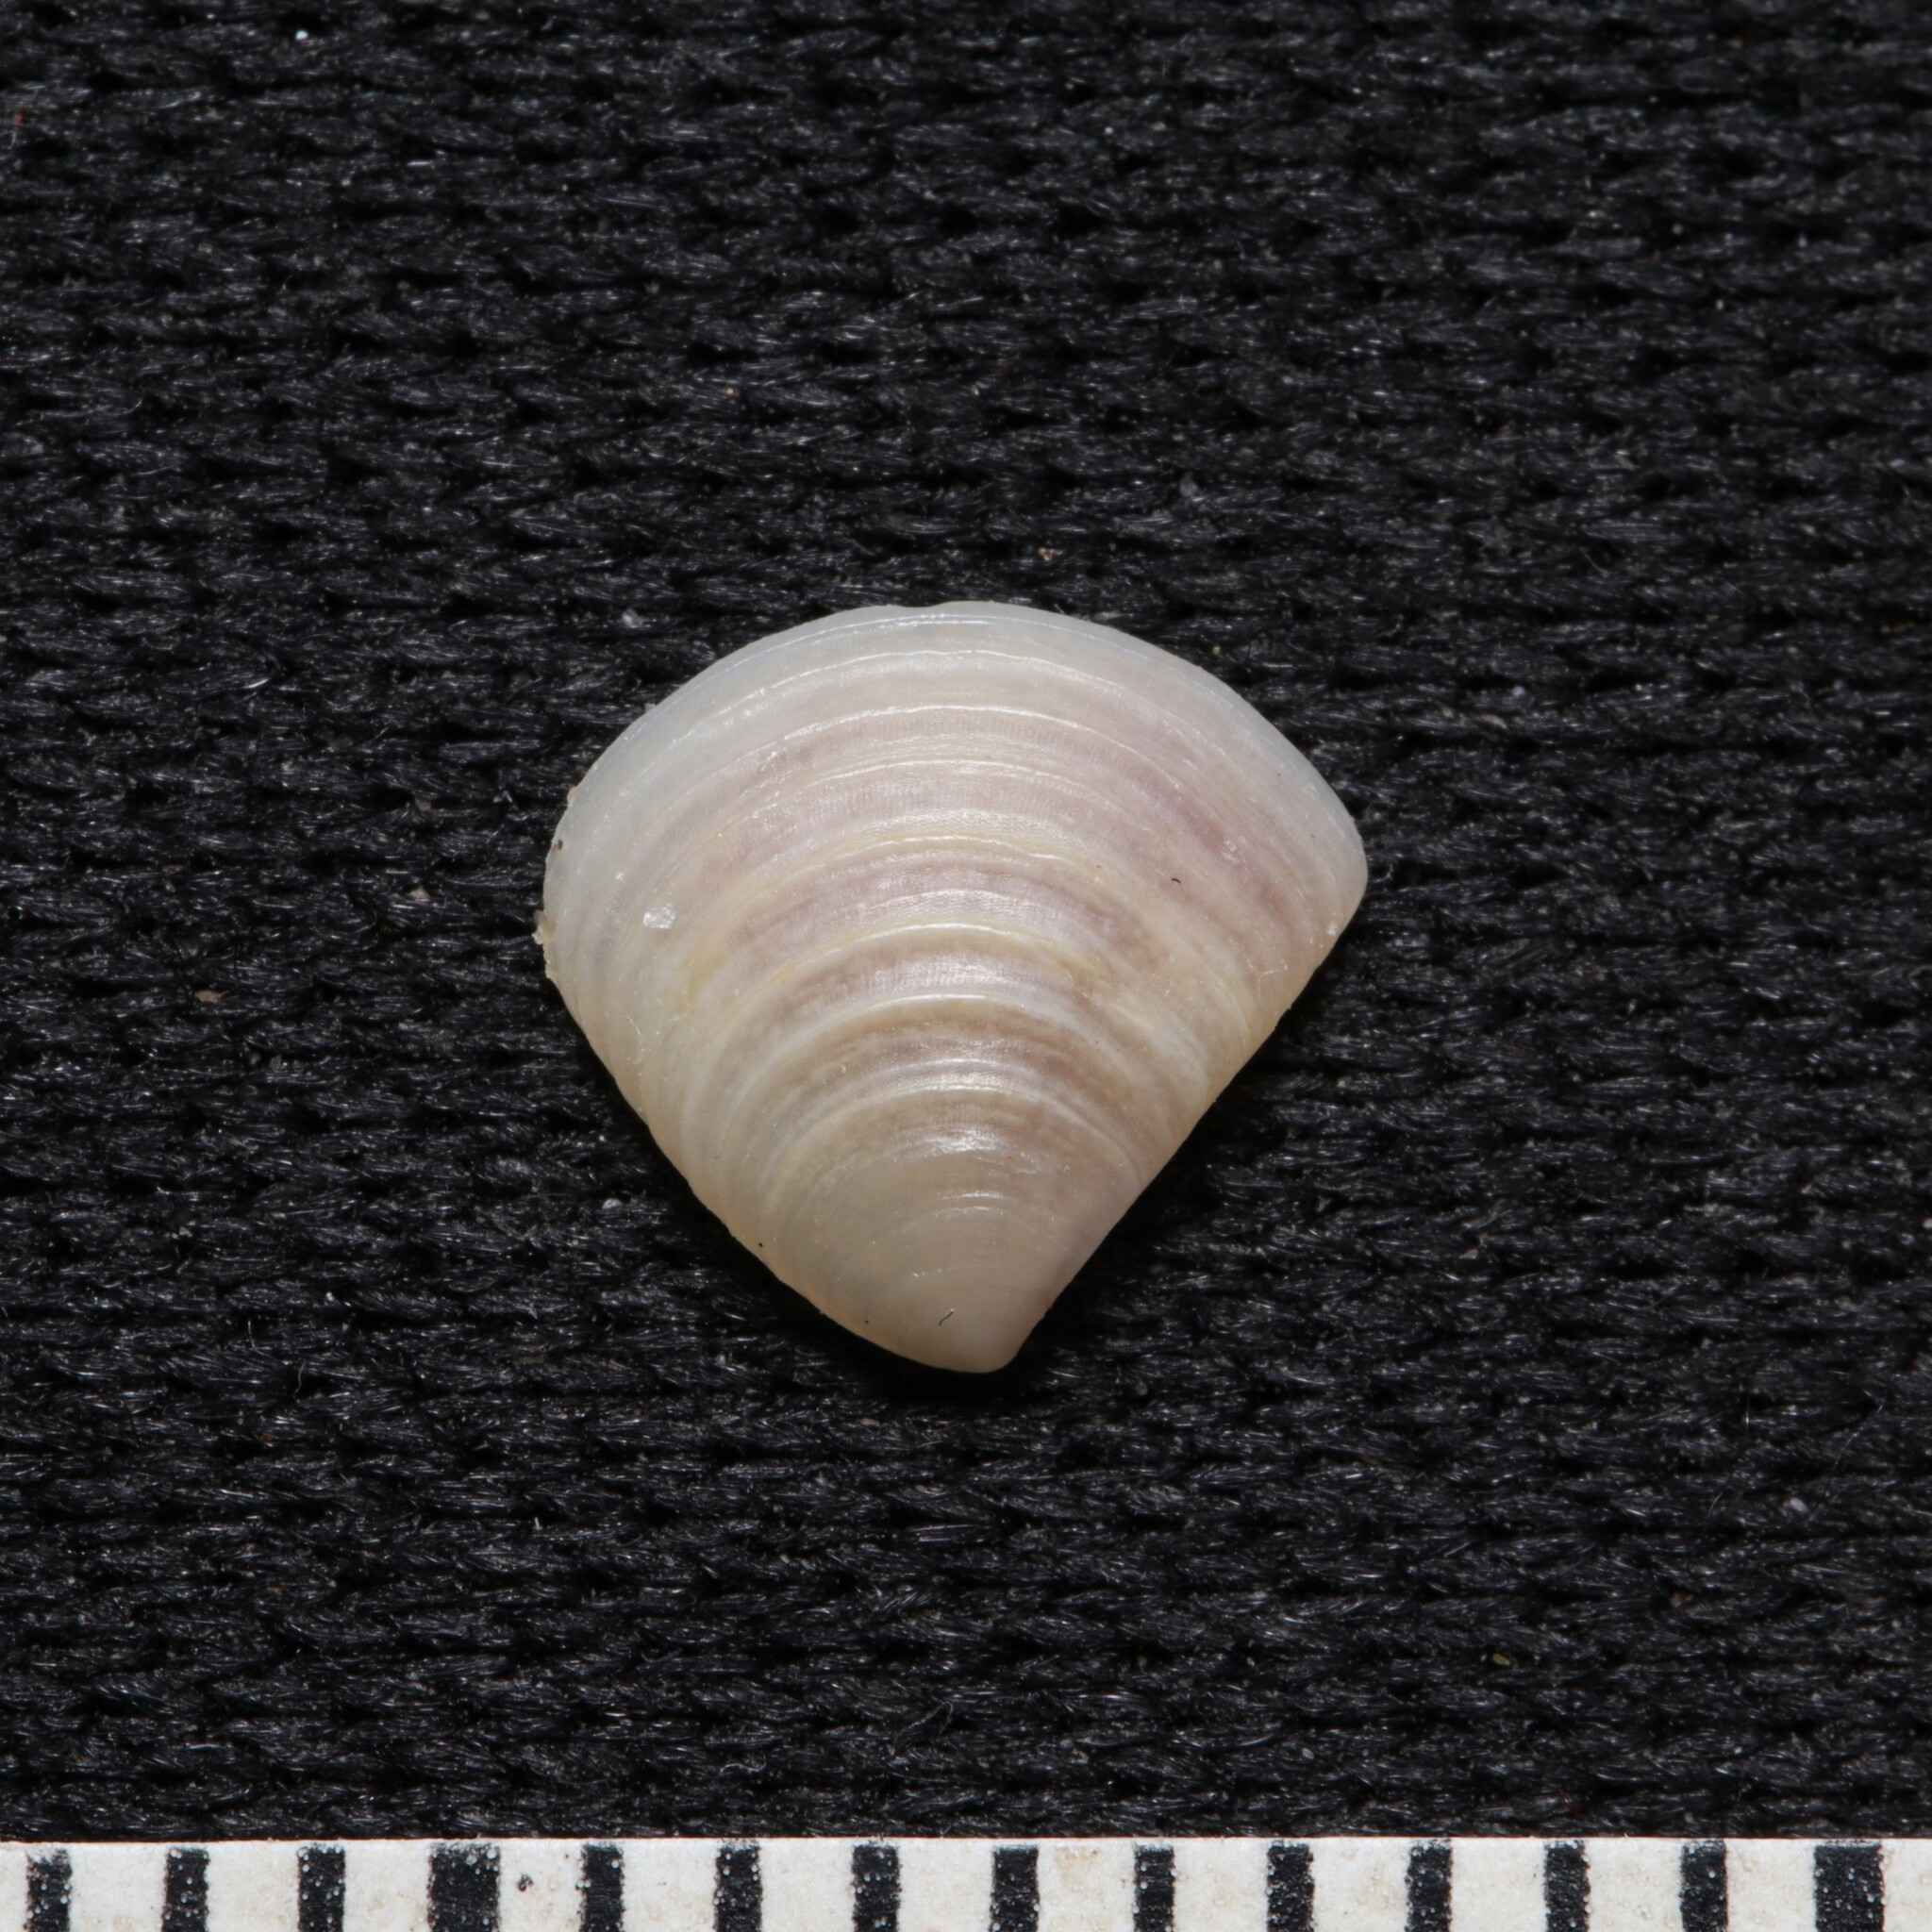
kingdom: Animalia
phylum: Mollusca
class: Bivalvia
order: Carditida
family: Crassatellidae
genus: Crassinella
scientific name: Crassinella lunulata
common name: Lunate crassinella
